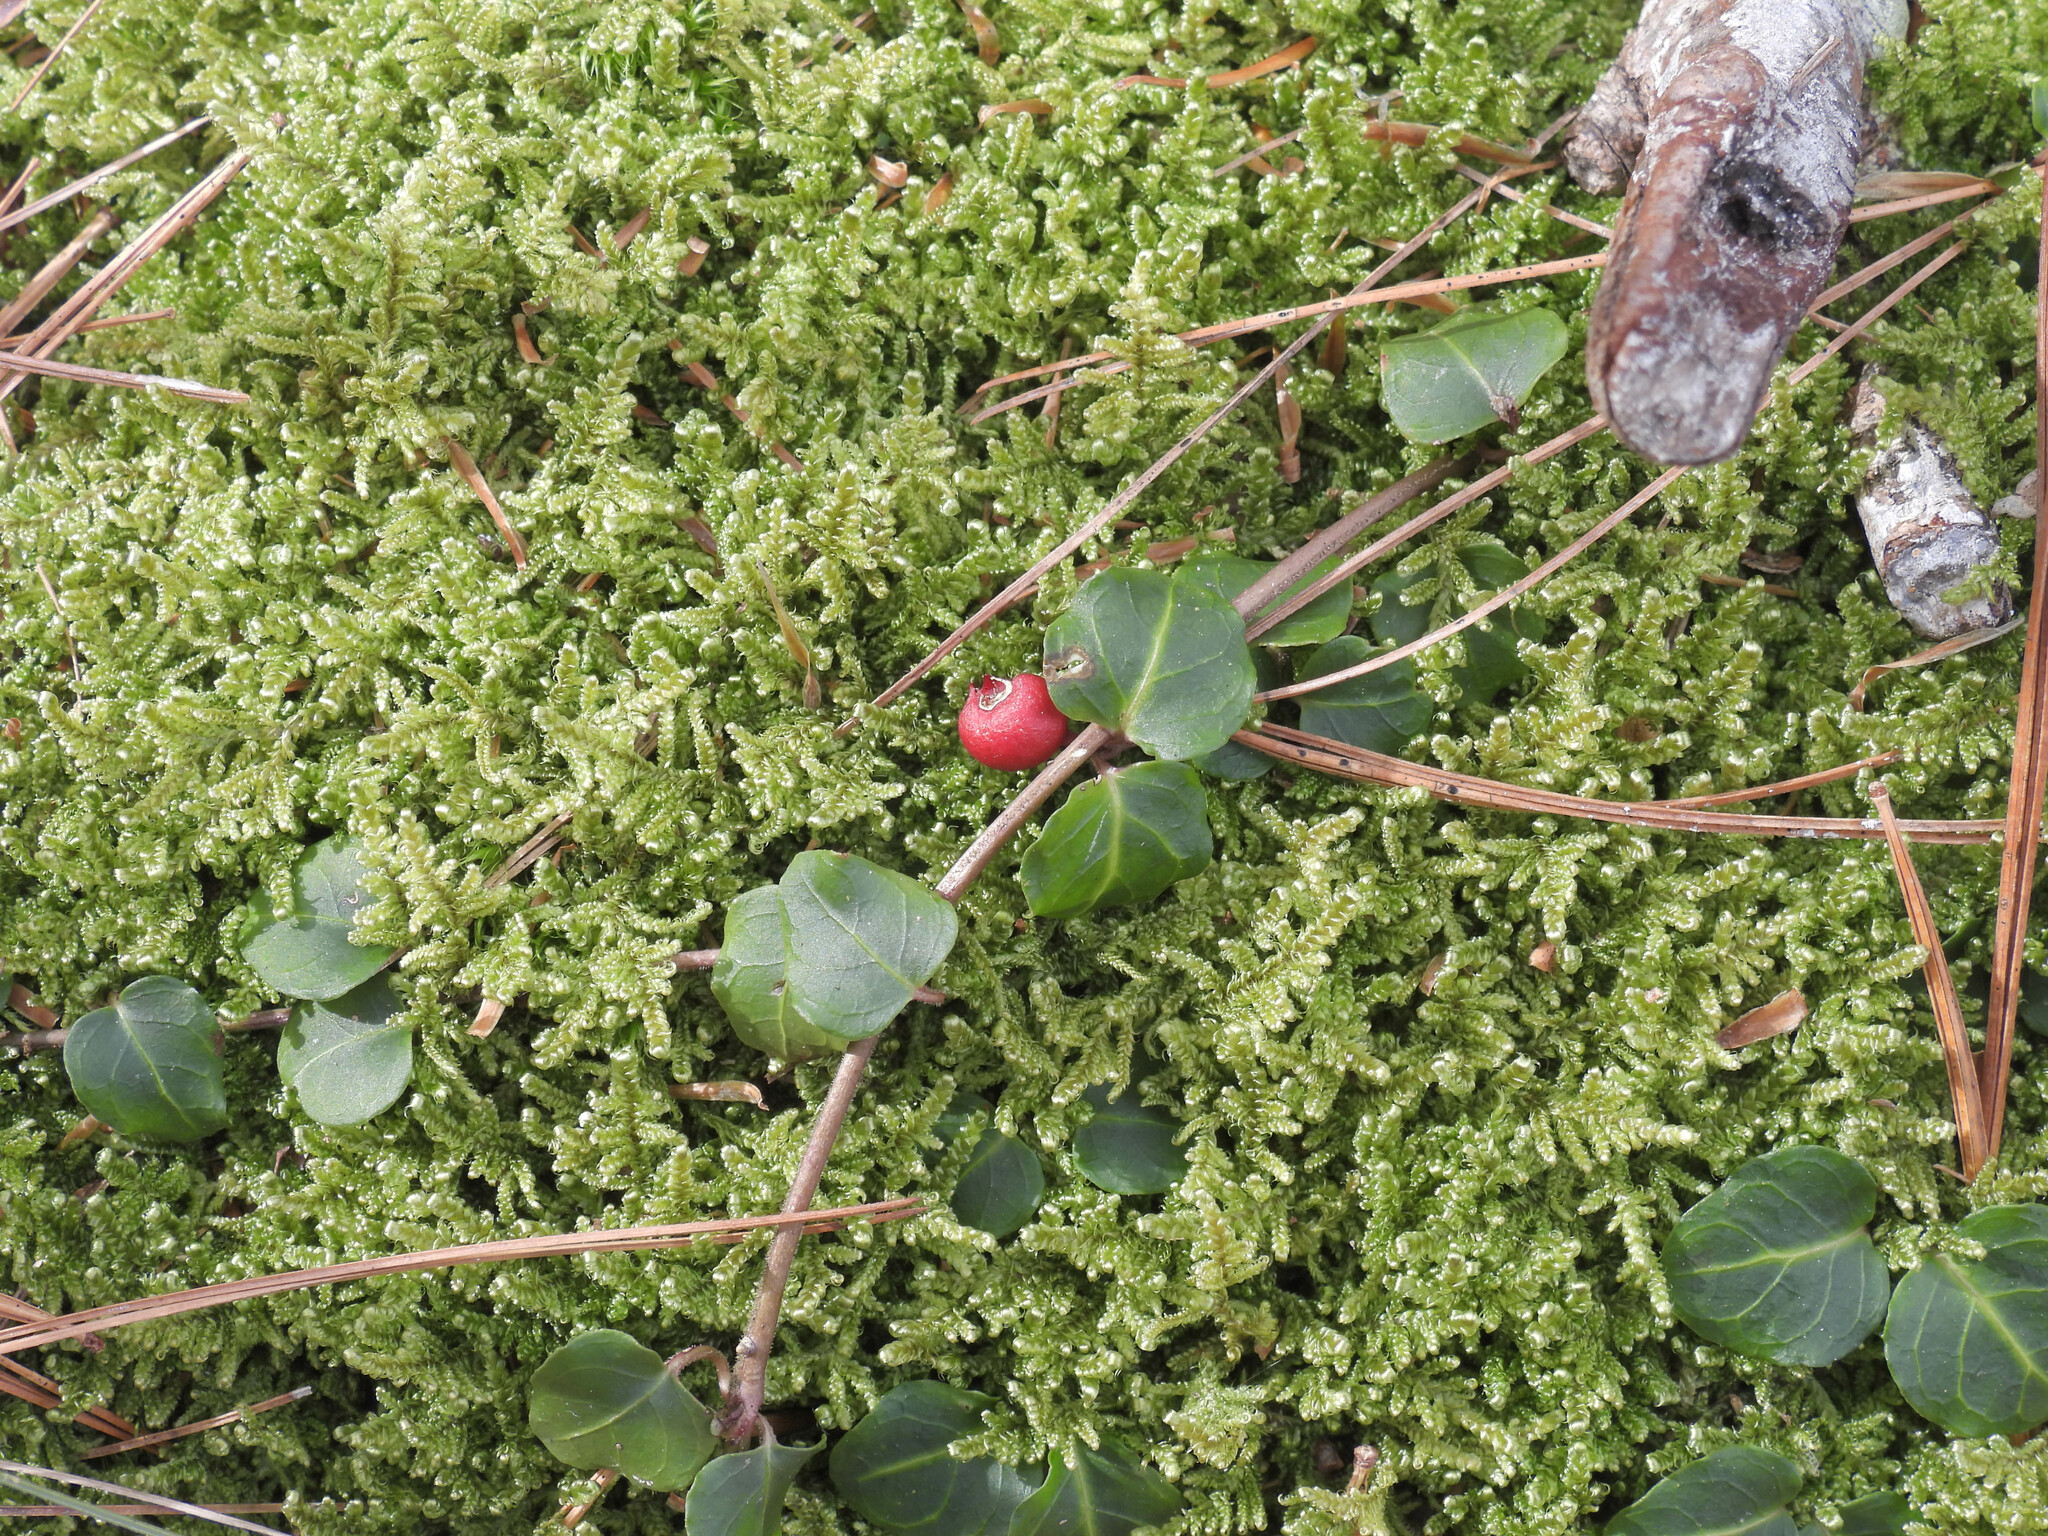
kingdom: Plantae
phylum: Tracheophyta
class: Magnoliopsida
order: Gentianales
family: Rubiaceae
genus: Mitchella
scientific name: Mitchella repens
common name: Partridge-berry
